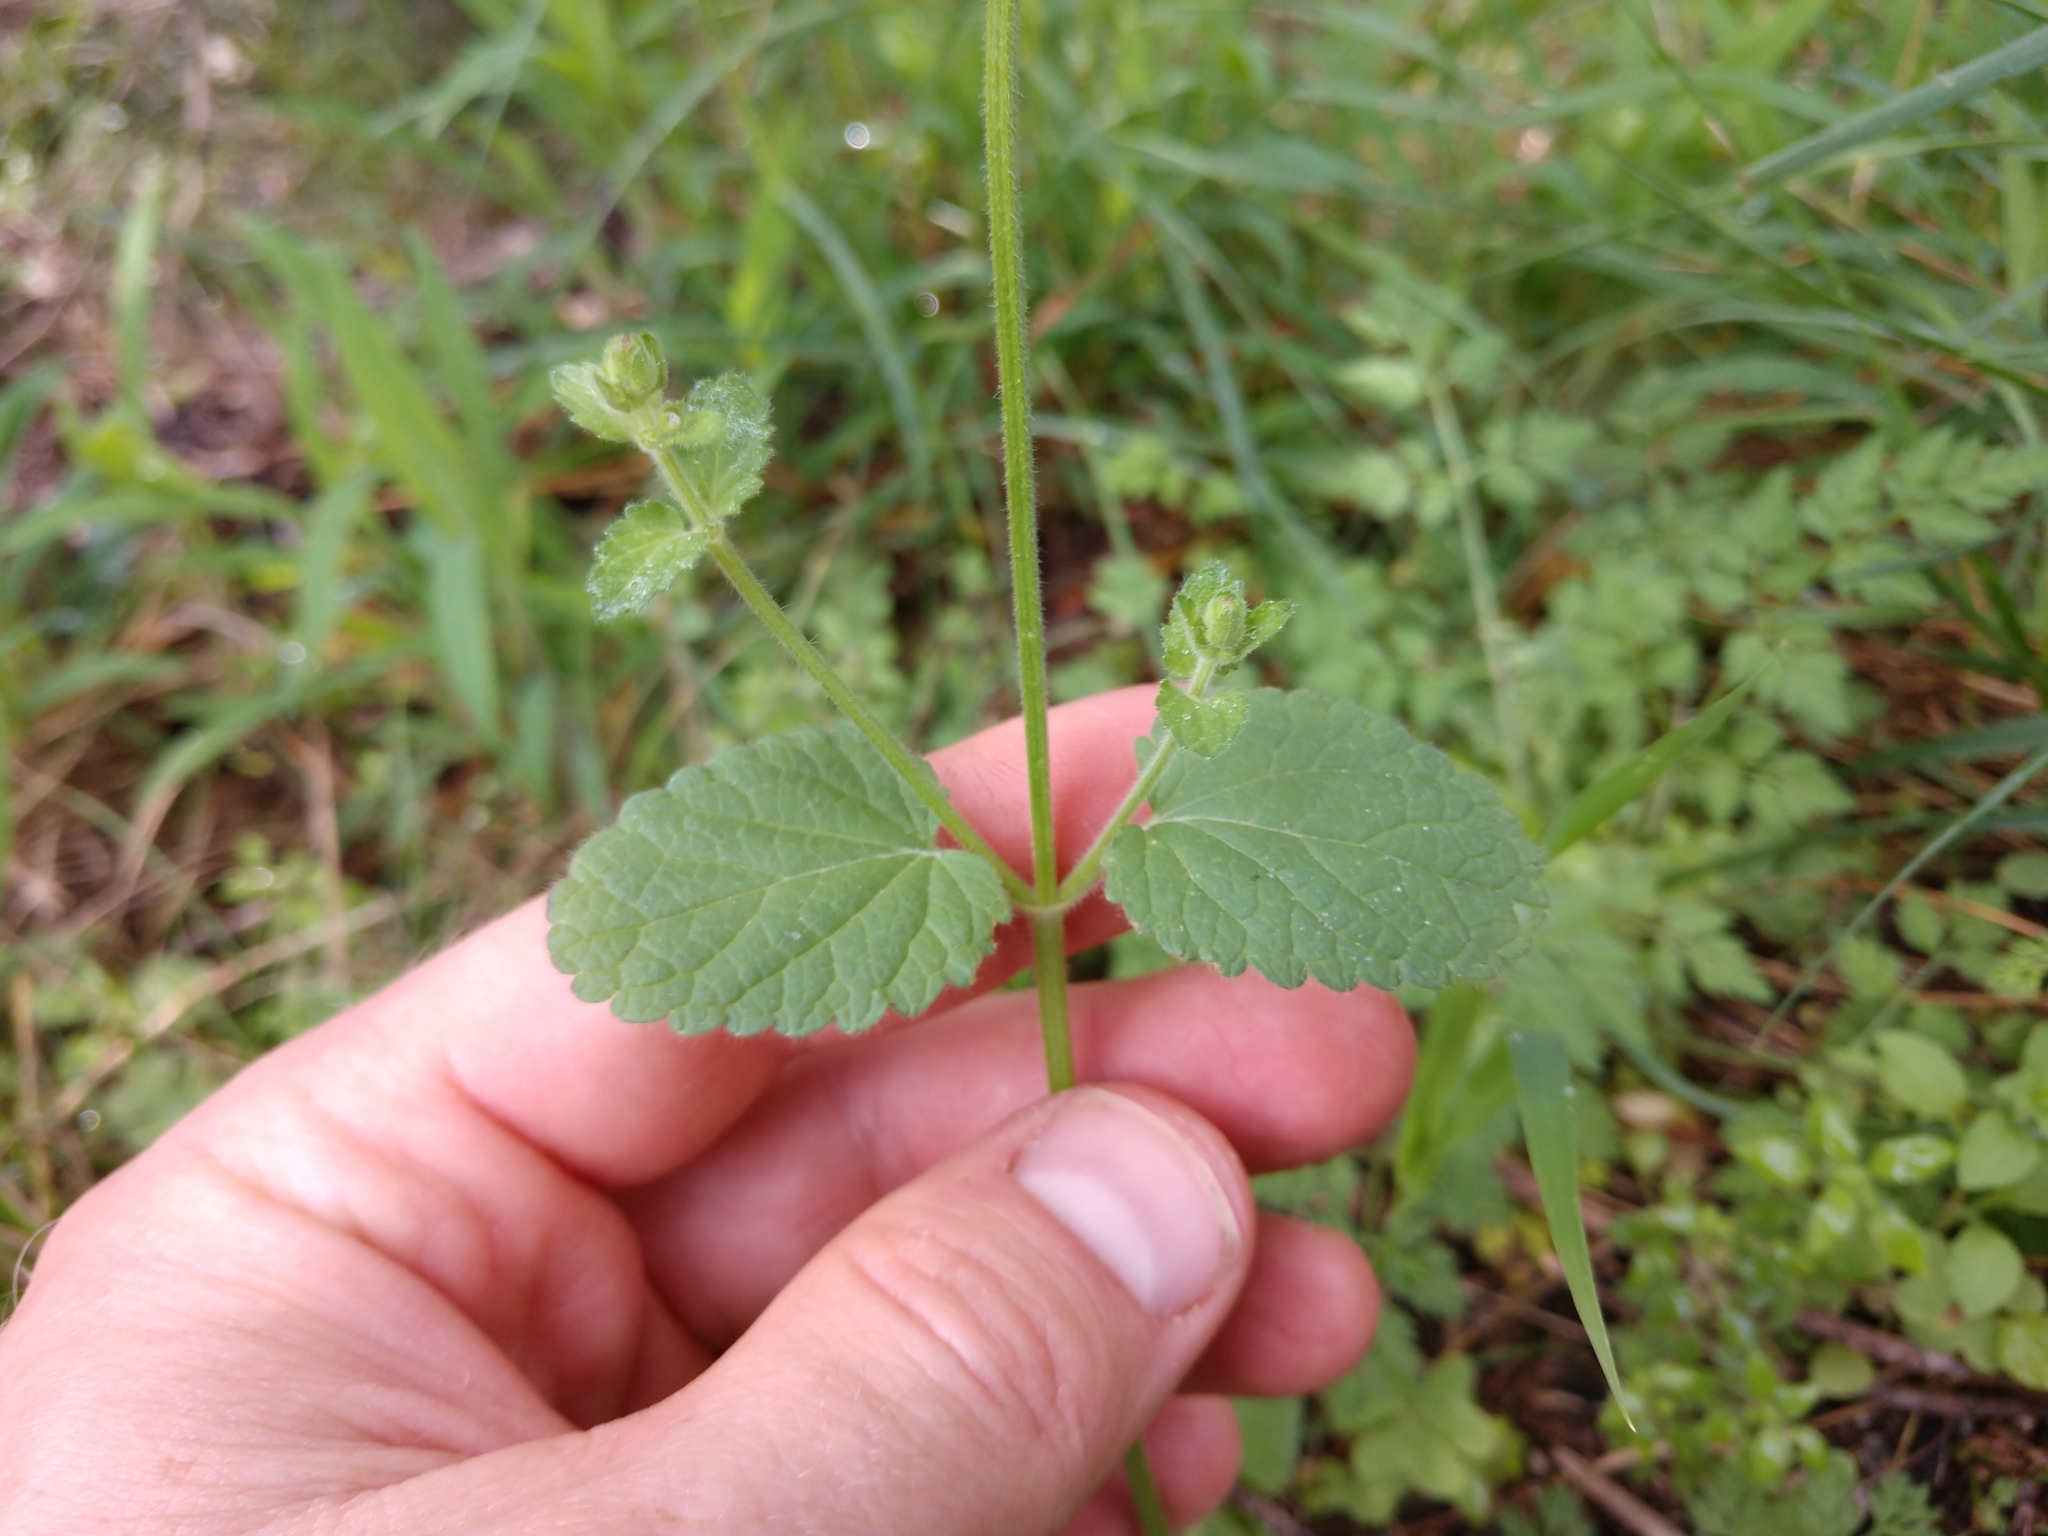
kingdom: Plantae
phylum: Tracheophyta
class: Magnoliopsida
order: Lamiales
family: Lamiaceae
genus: Stachys
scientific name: Stachys
